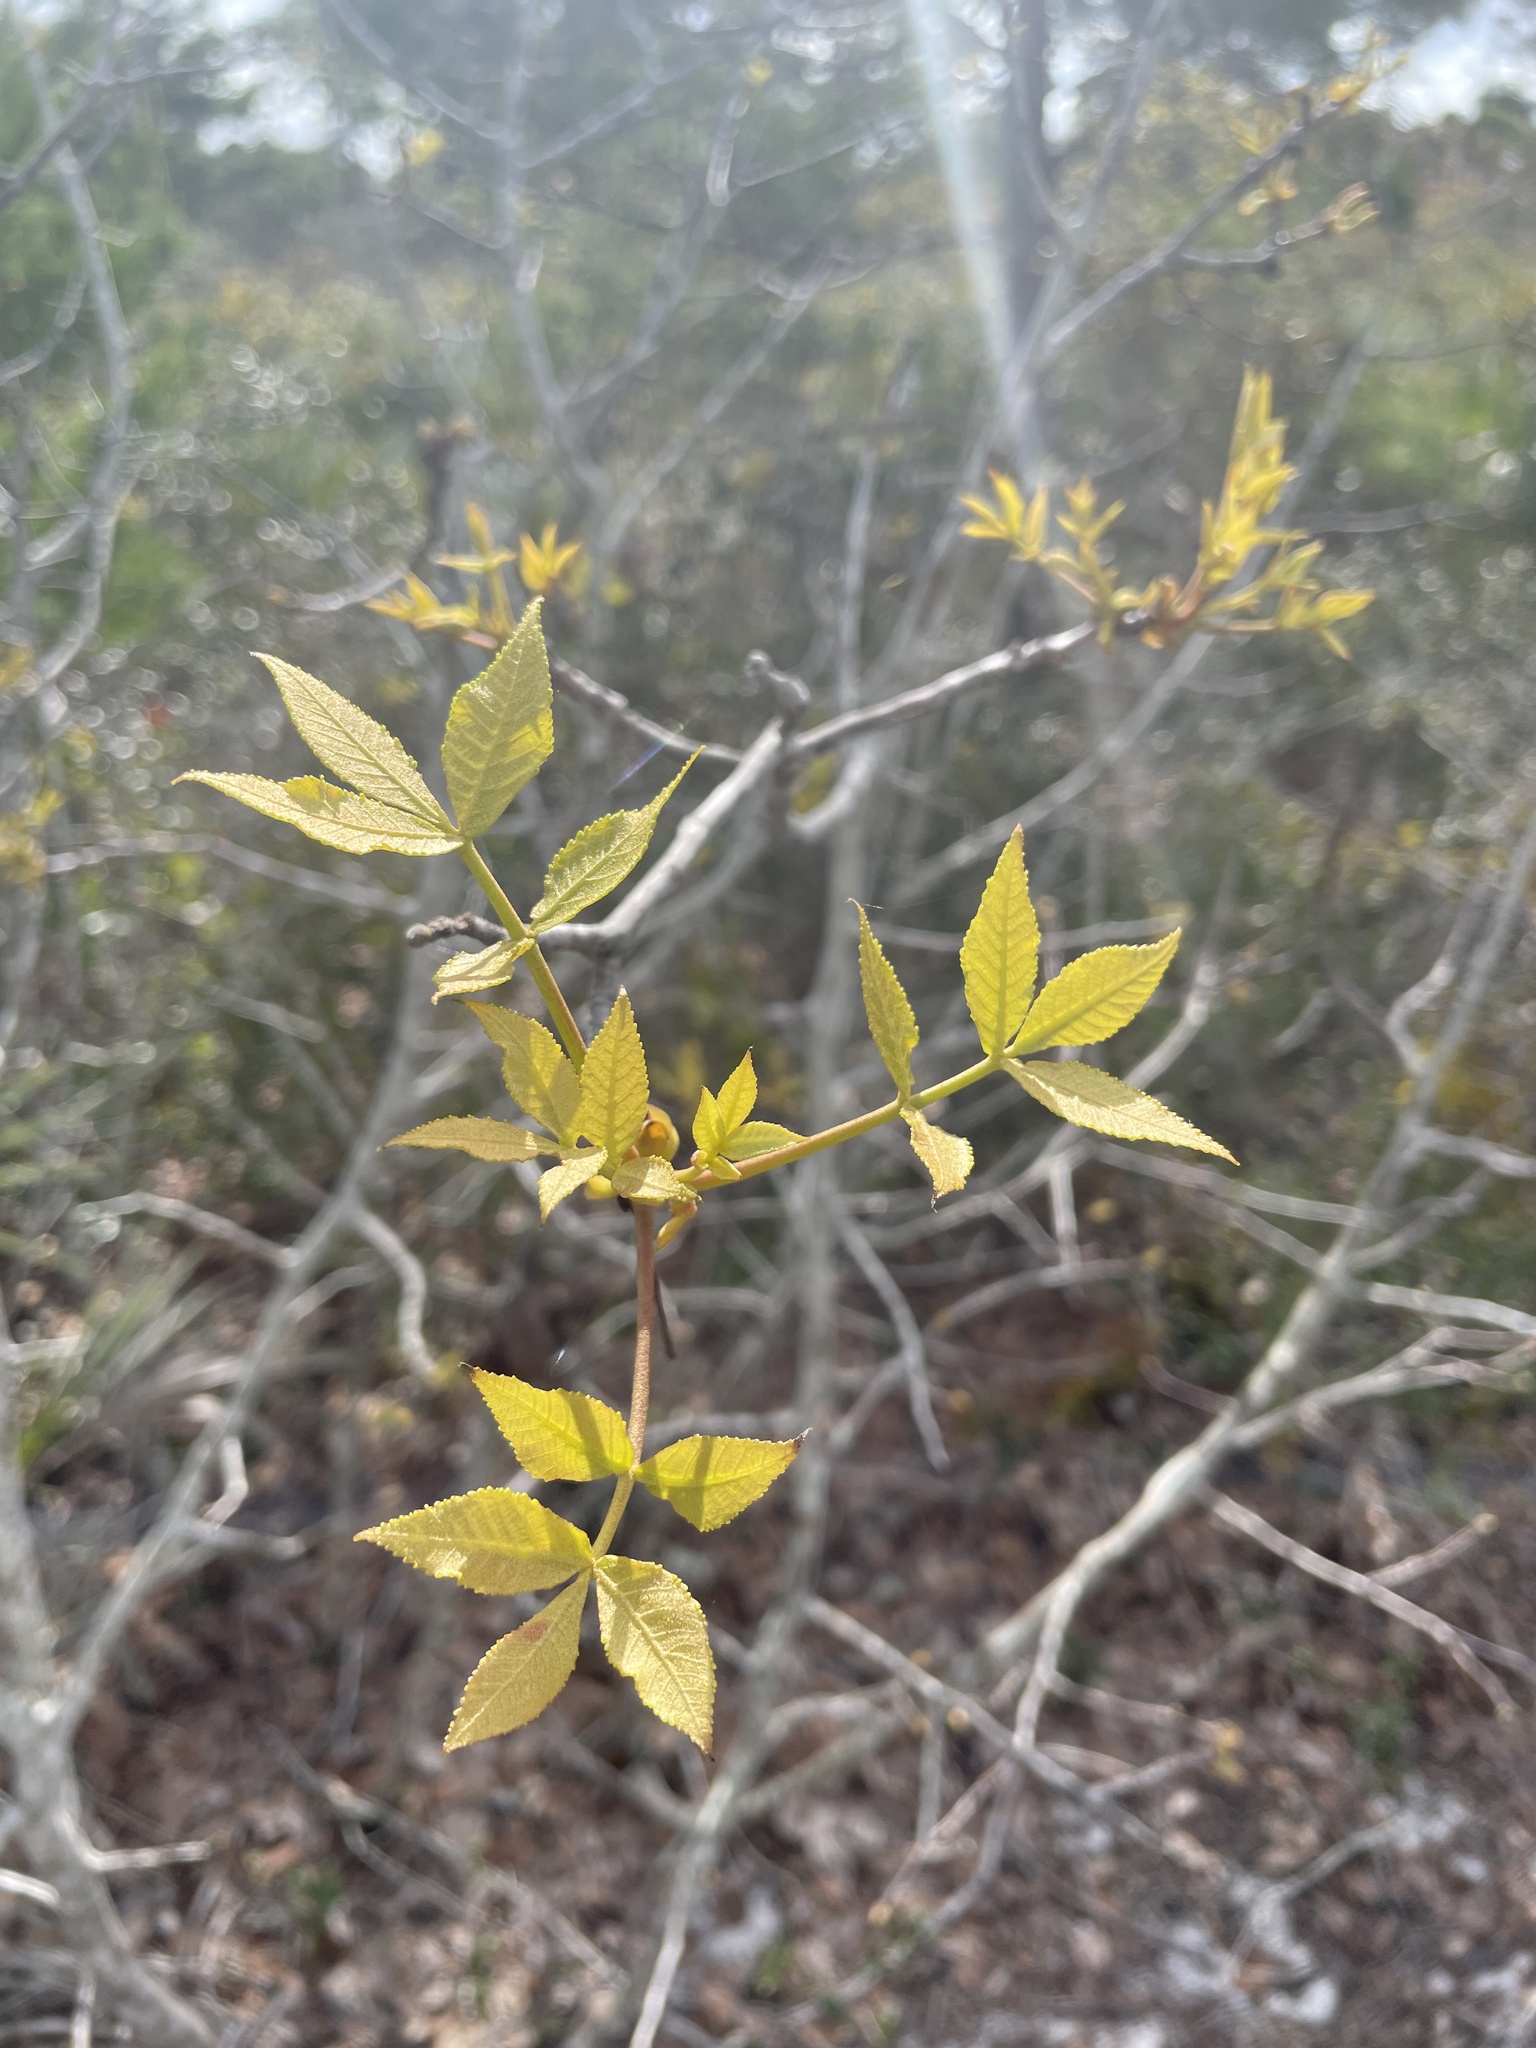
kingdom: Plantae
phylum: Tracheophyta
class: Magnoliopsida
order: Fagales
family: Juglandaceae
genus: Carya
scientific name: Carya floridana
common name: Scrub hickory
